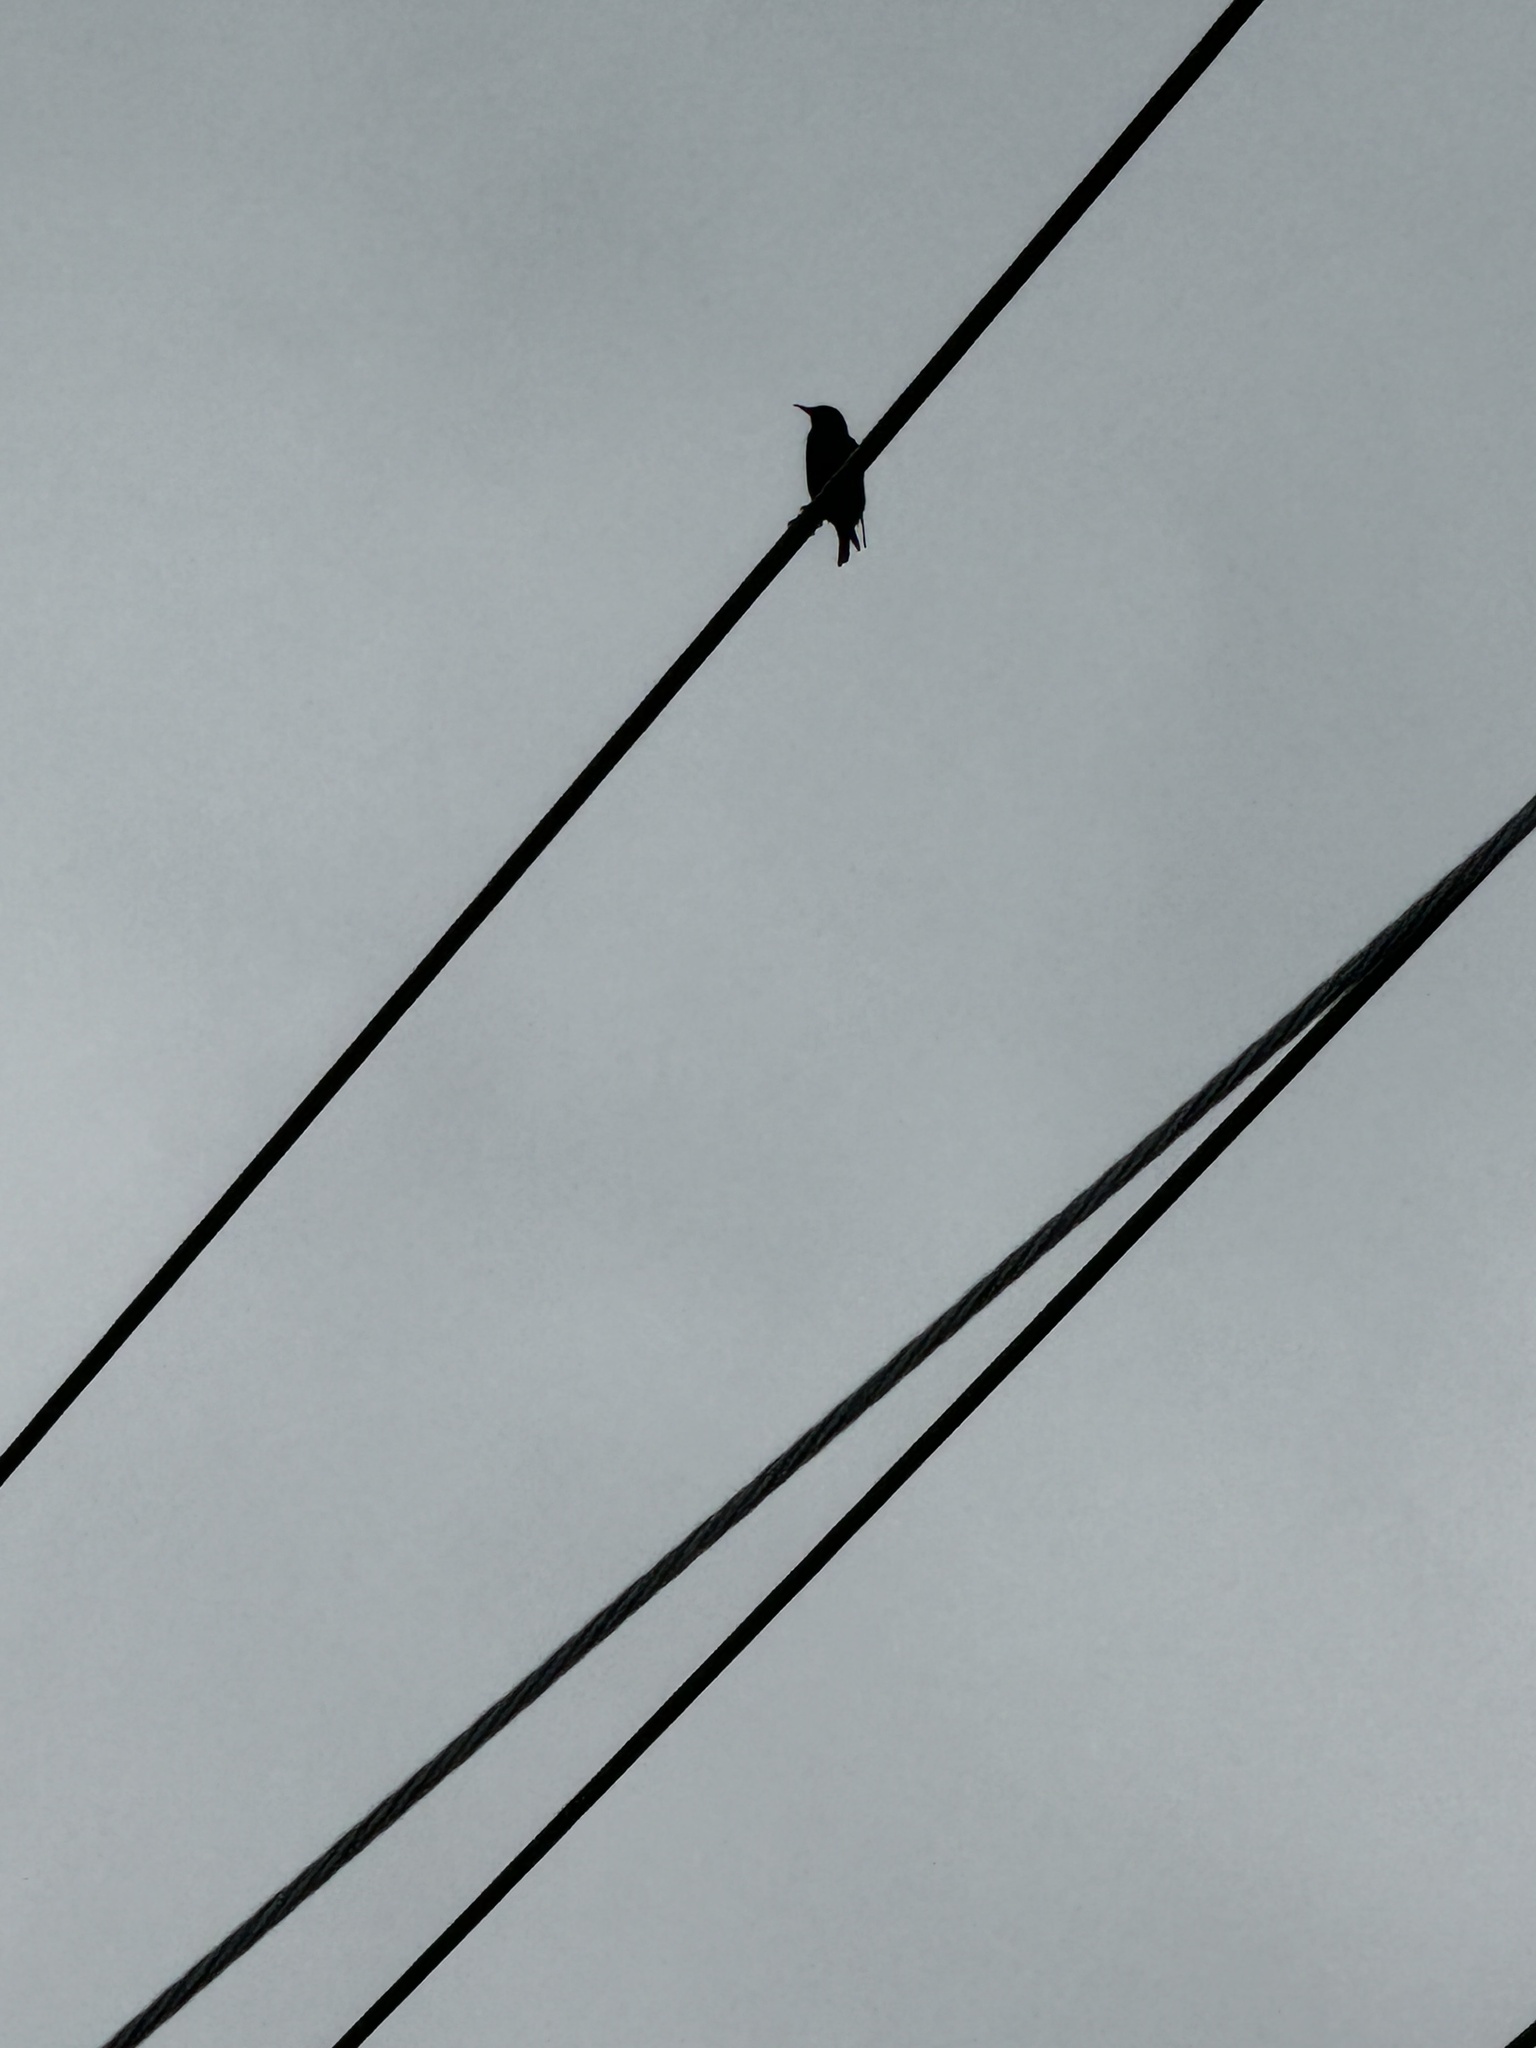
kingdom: Animalia
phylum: Chordata
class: Aves
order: Passeriformes
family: Sturnidae
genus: Sturnus
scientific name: Sturnus vulgaris
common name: Common starling
